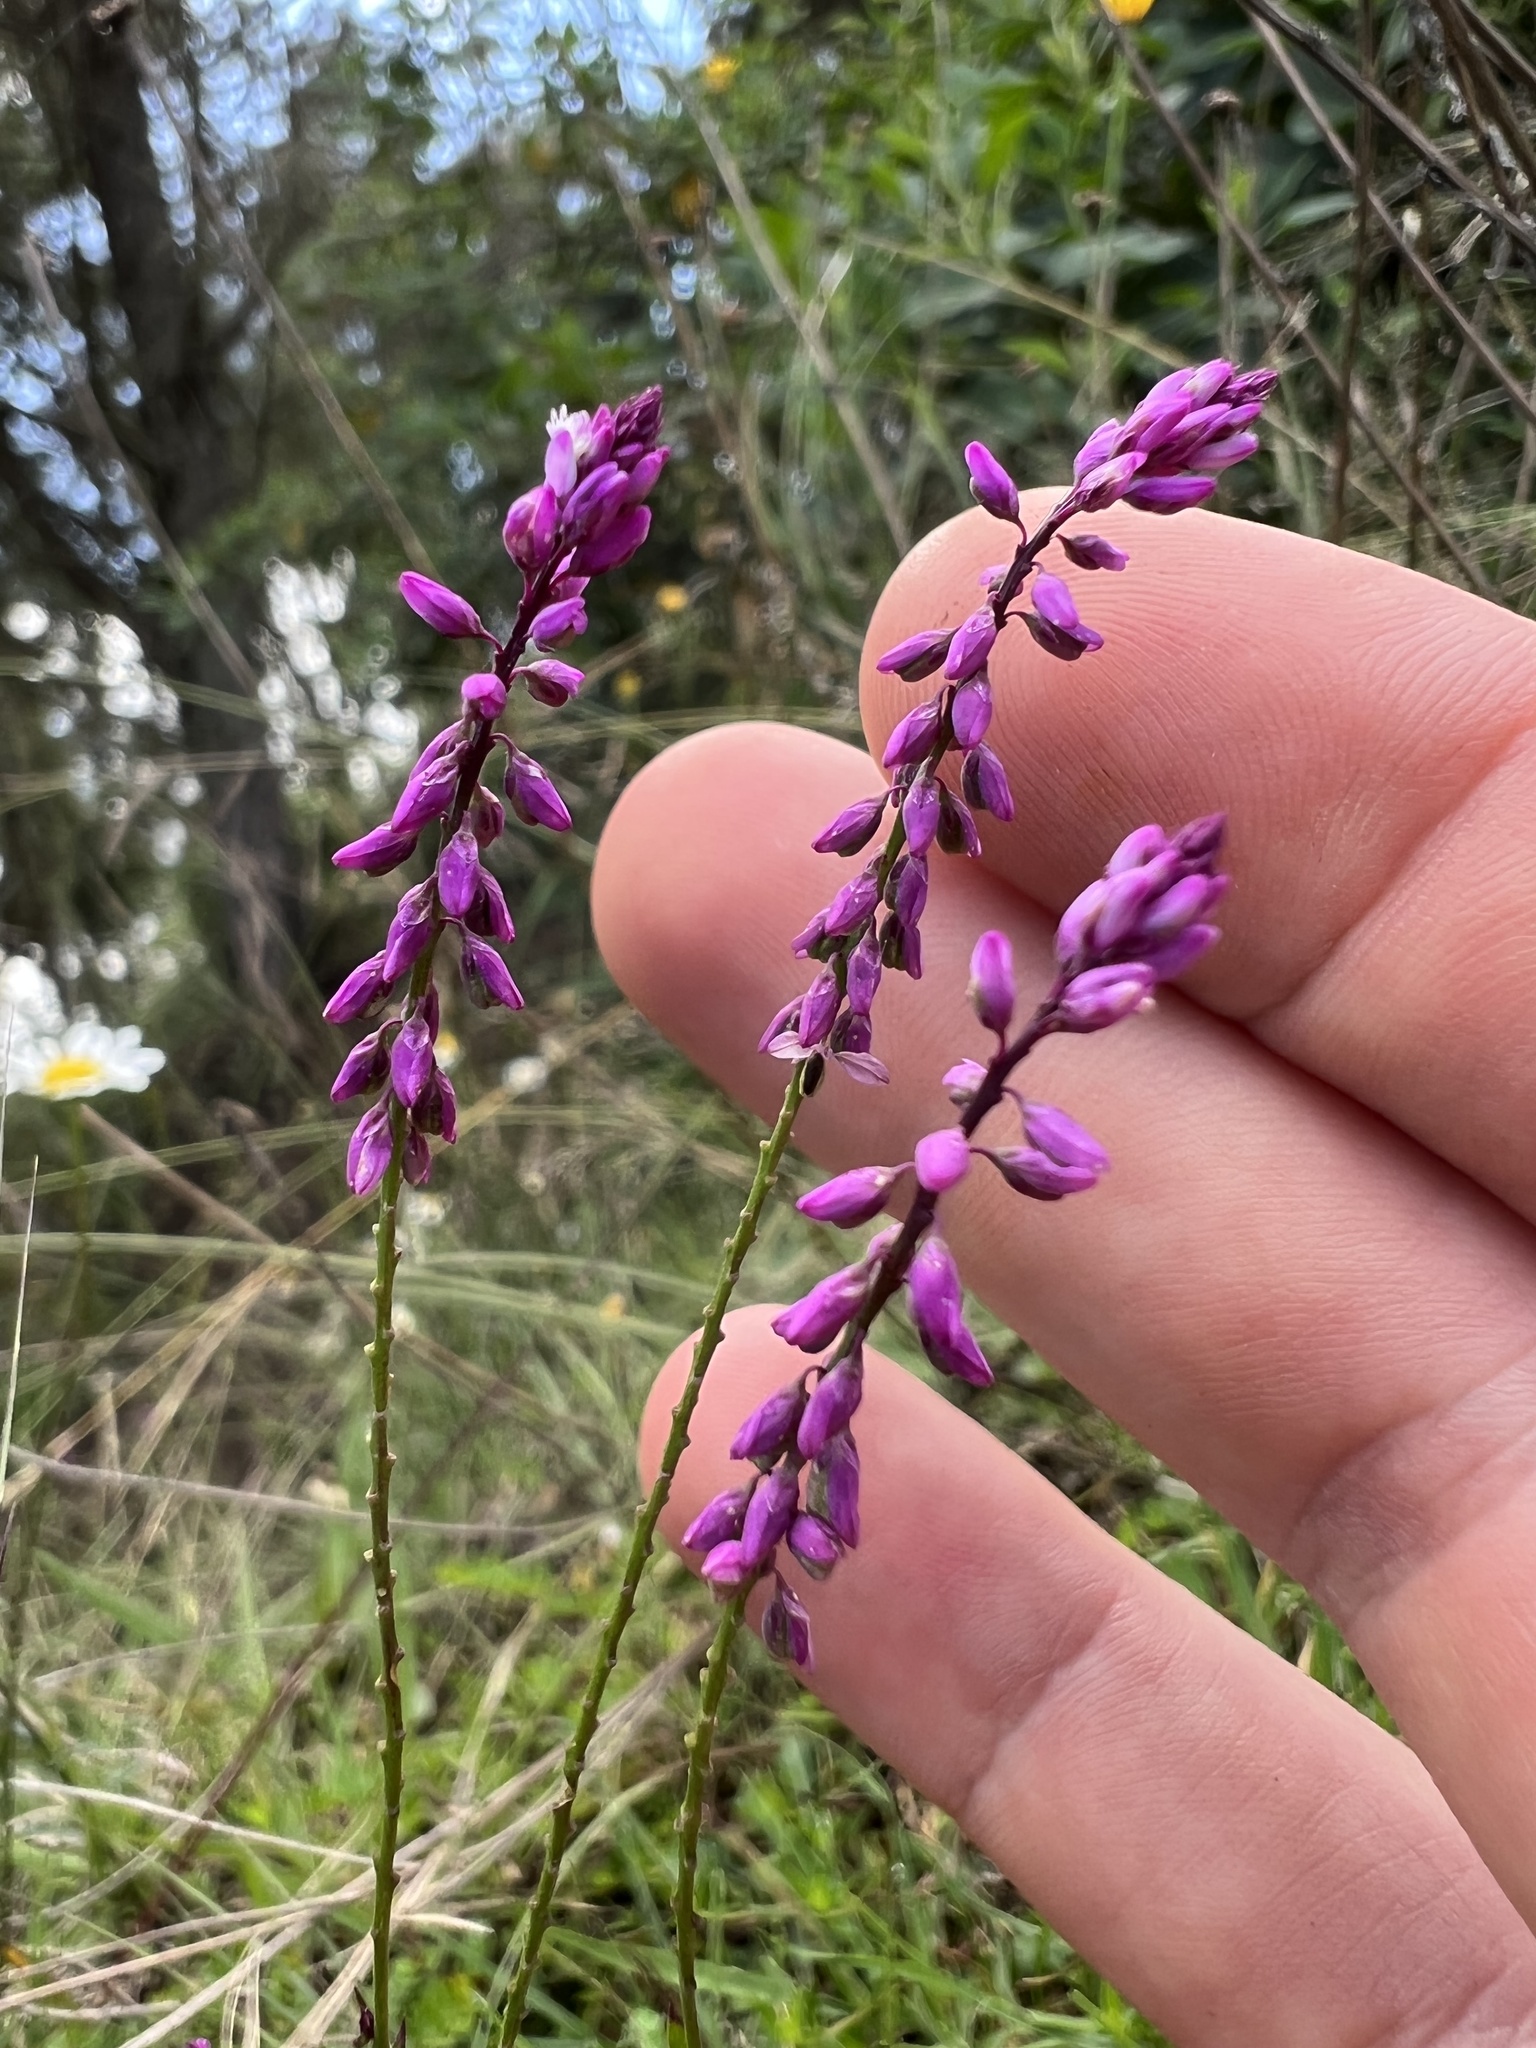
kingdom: Plantae
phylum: Tracheophyta
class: Magnoliopsida
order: Fabales
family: Polygalaceae
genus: Polygala
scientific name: Polygala paniculata
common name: Orosne
